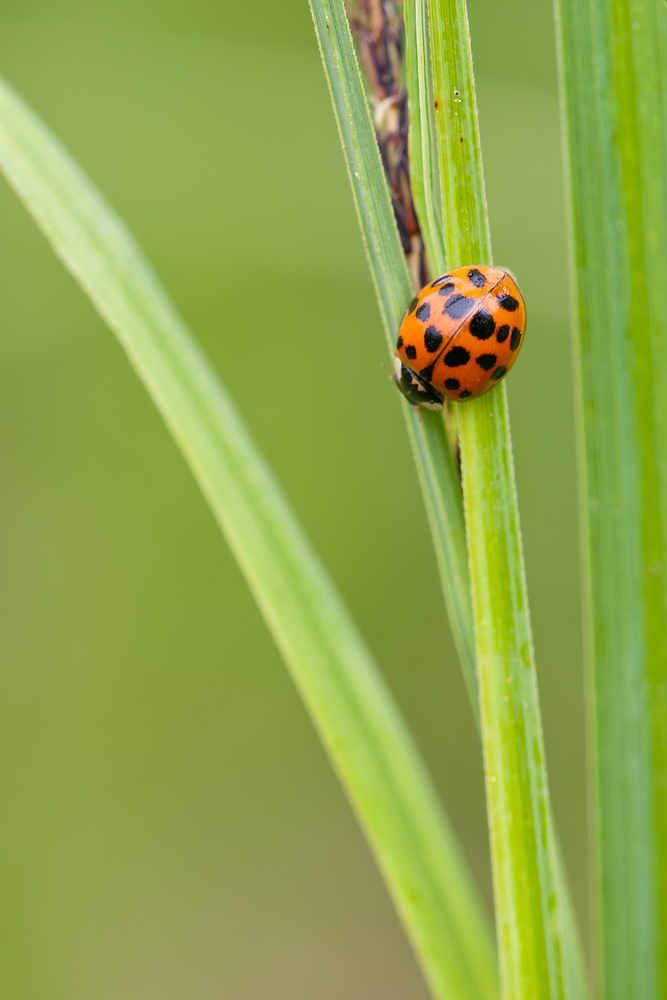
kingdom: Animalia
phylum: Arthropoda
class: Insecta
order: Coleoptera
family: Coccinellidae
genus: Harmonia
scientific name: Harmonia axyridis
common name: Harlequin ladybird
